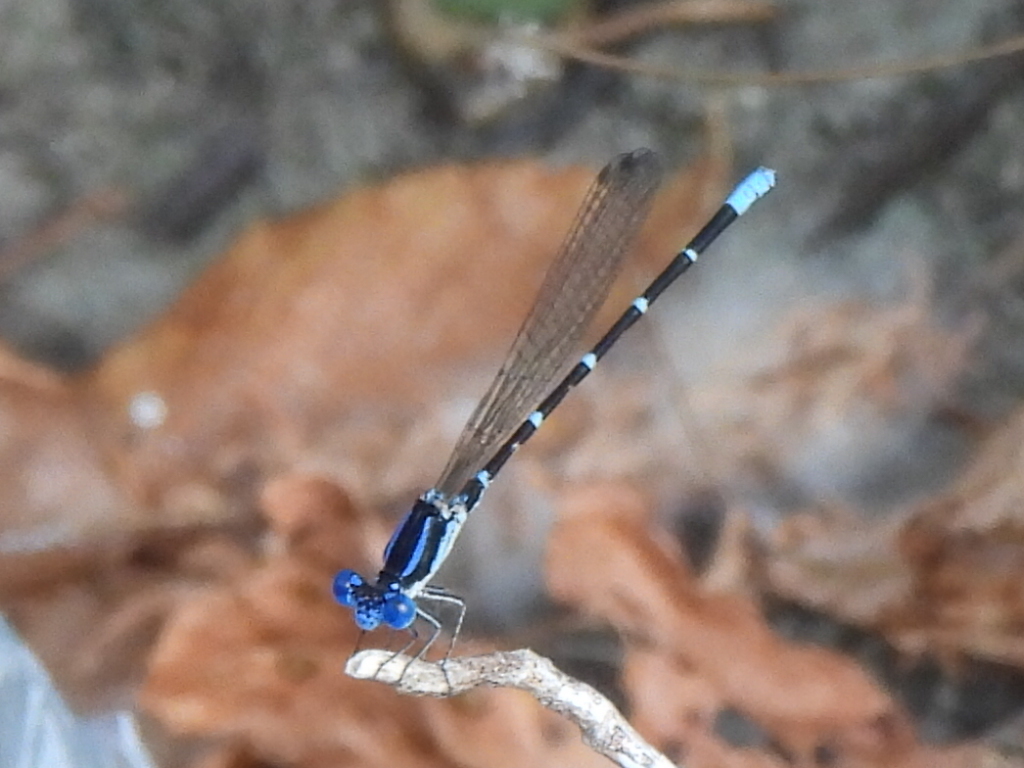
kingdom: Animalia
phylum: Arthropoda
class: Insecta
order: Odonata
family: Coenagrionidae
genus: Argia
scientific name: Argia sedula
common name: Blue-ringed dancer
